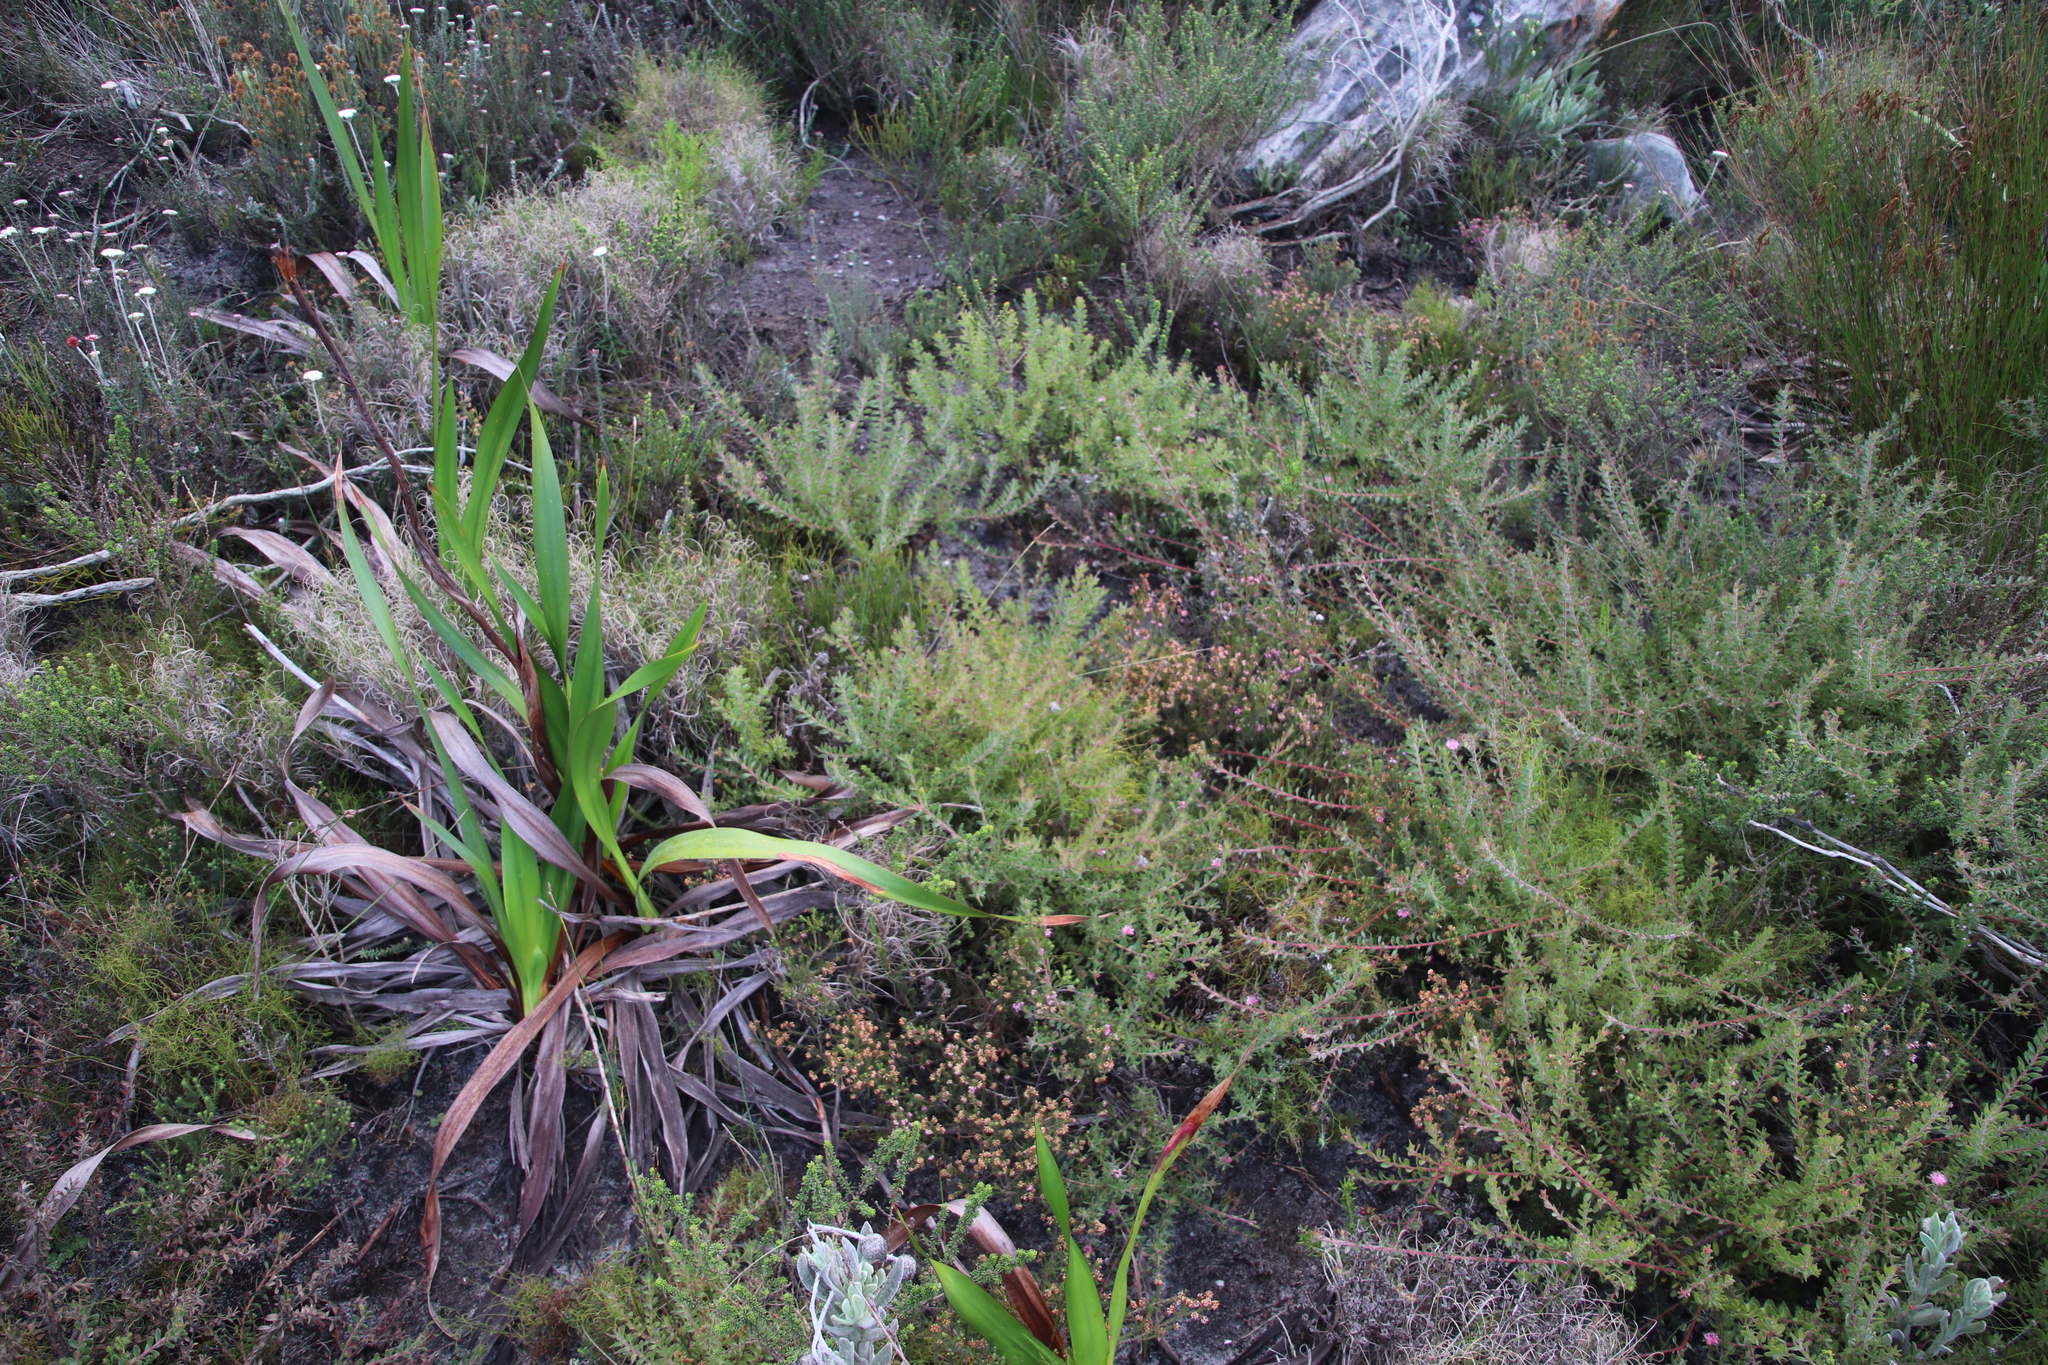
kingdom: Plantae
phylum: Tracheophyta
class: Magnoliopsida
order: Proteales
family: Proteaceae
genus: Diastella
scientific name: Diastella divaricata
